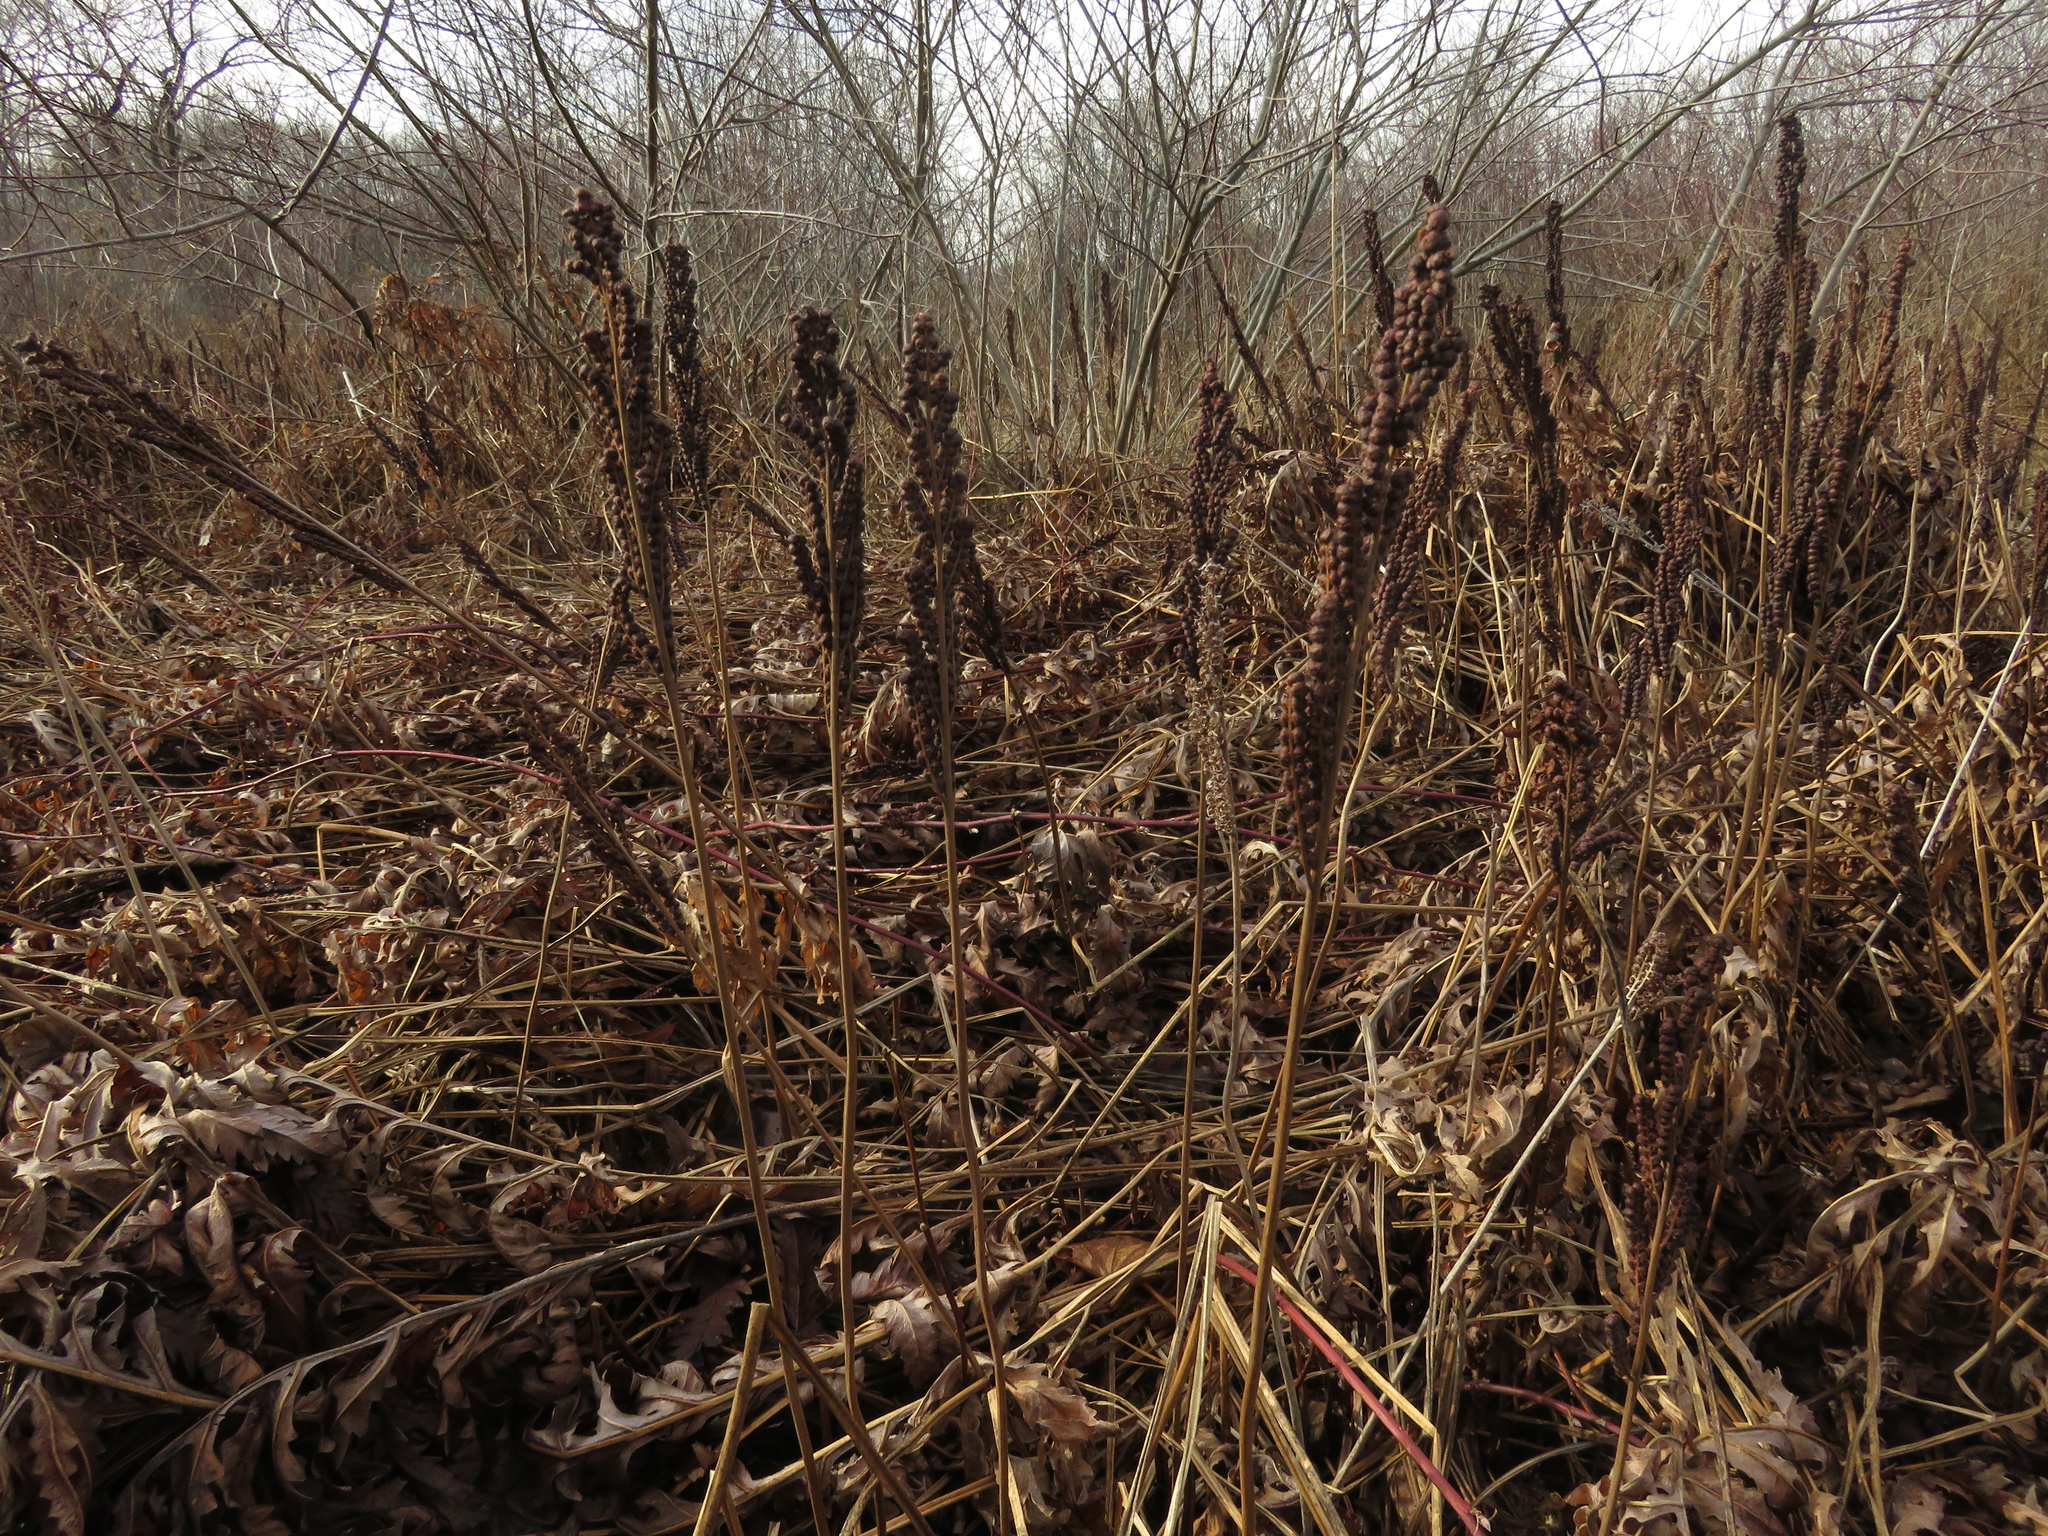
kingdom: Plantae
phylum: Tracheophyta
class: Polypodiopsida
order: Polypodiales
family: Onocleaceae
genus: Onoclea
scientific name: Onoclea sensibilis
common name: Sensitive fern
